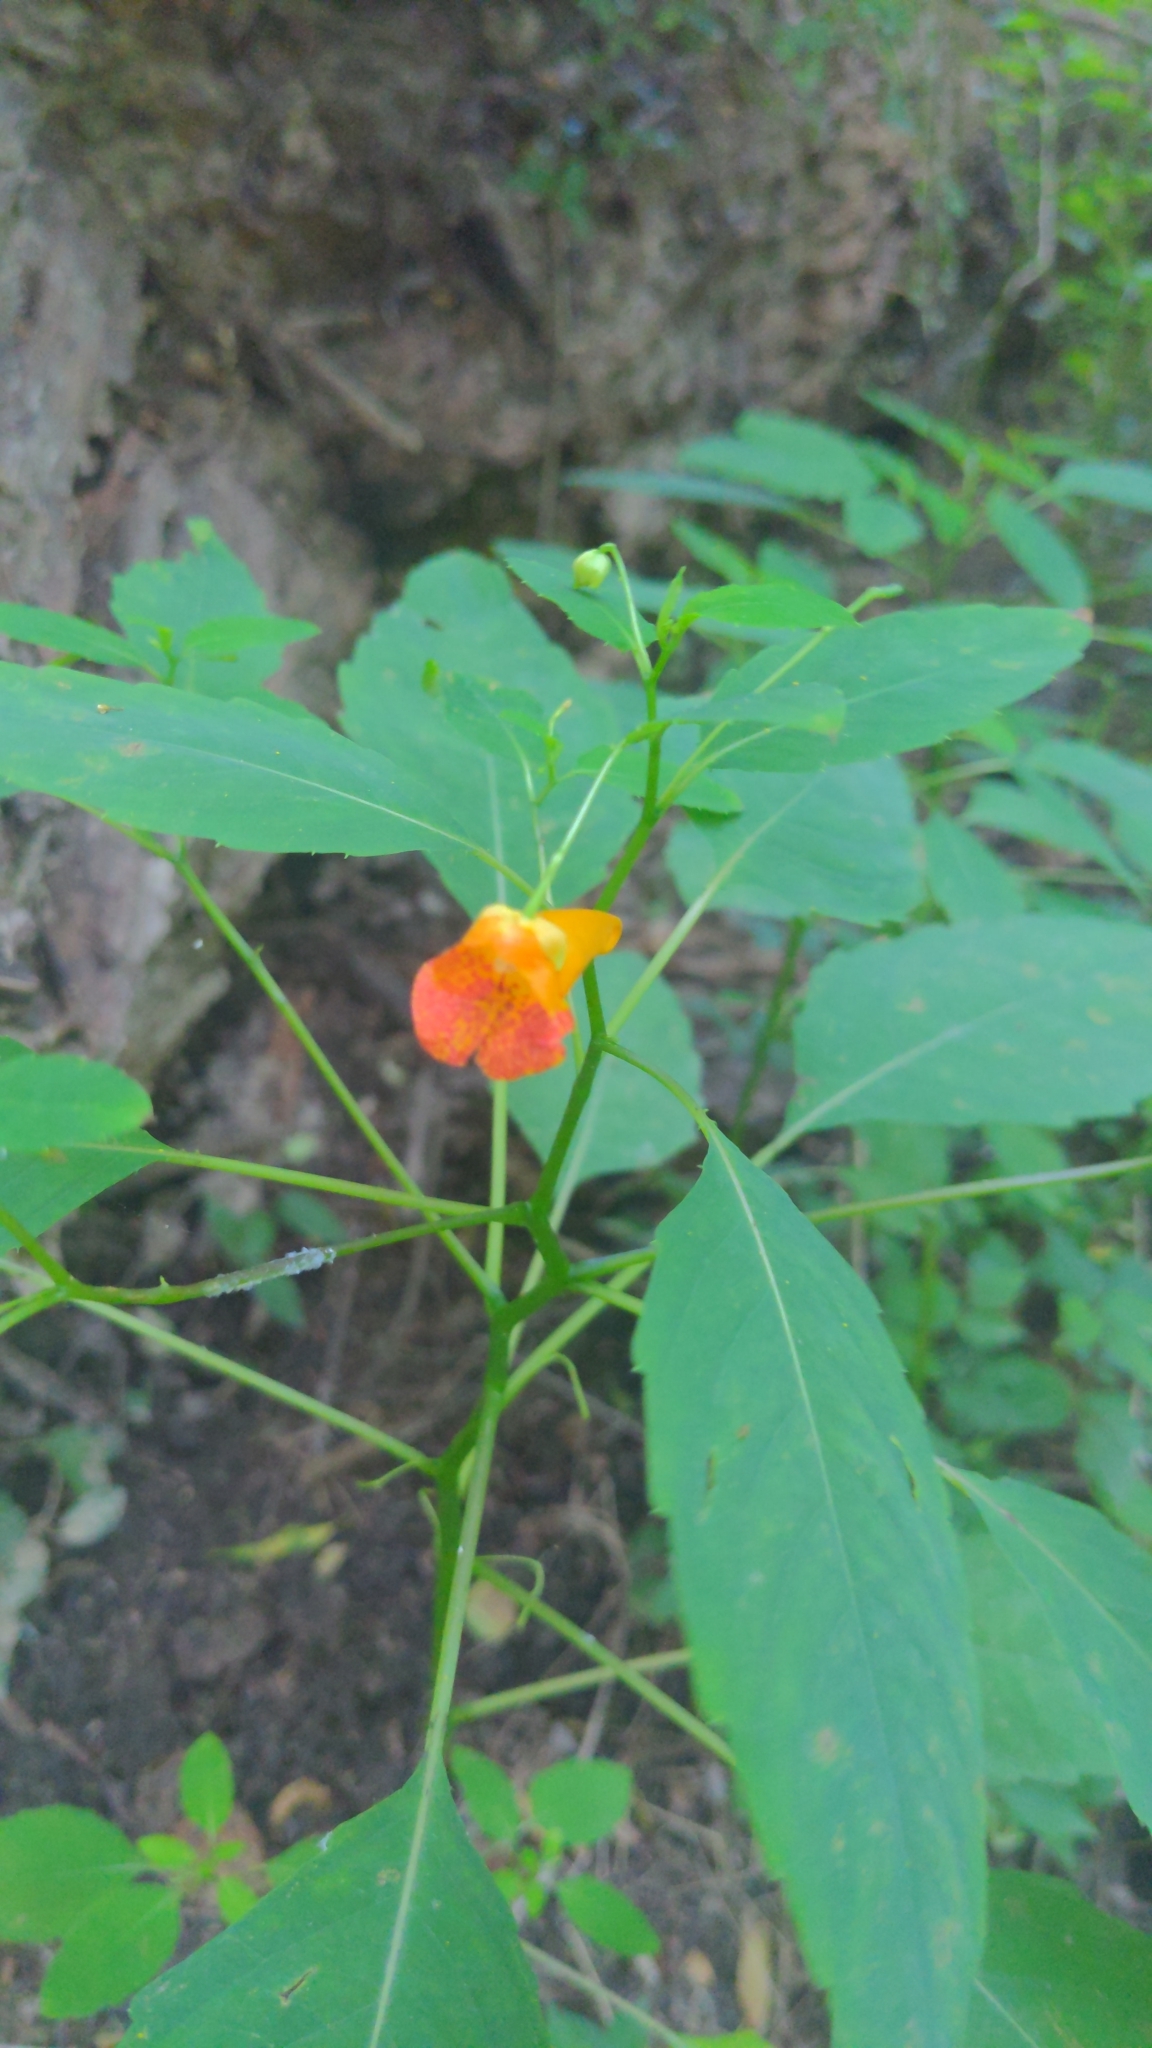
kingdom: Plantae
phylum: Tracheophyta
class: Magnoliopsida
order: Ericales
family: Balsaminaceae
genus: Impatiens
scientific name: Impatiens capensis
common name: Orange balsam
